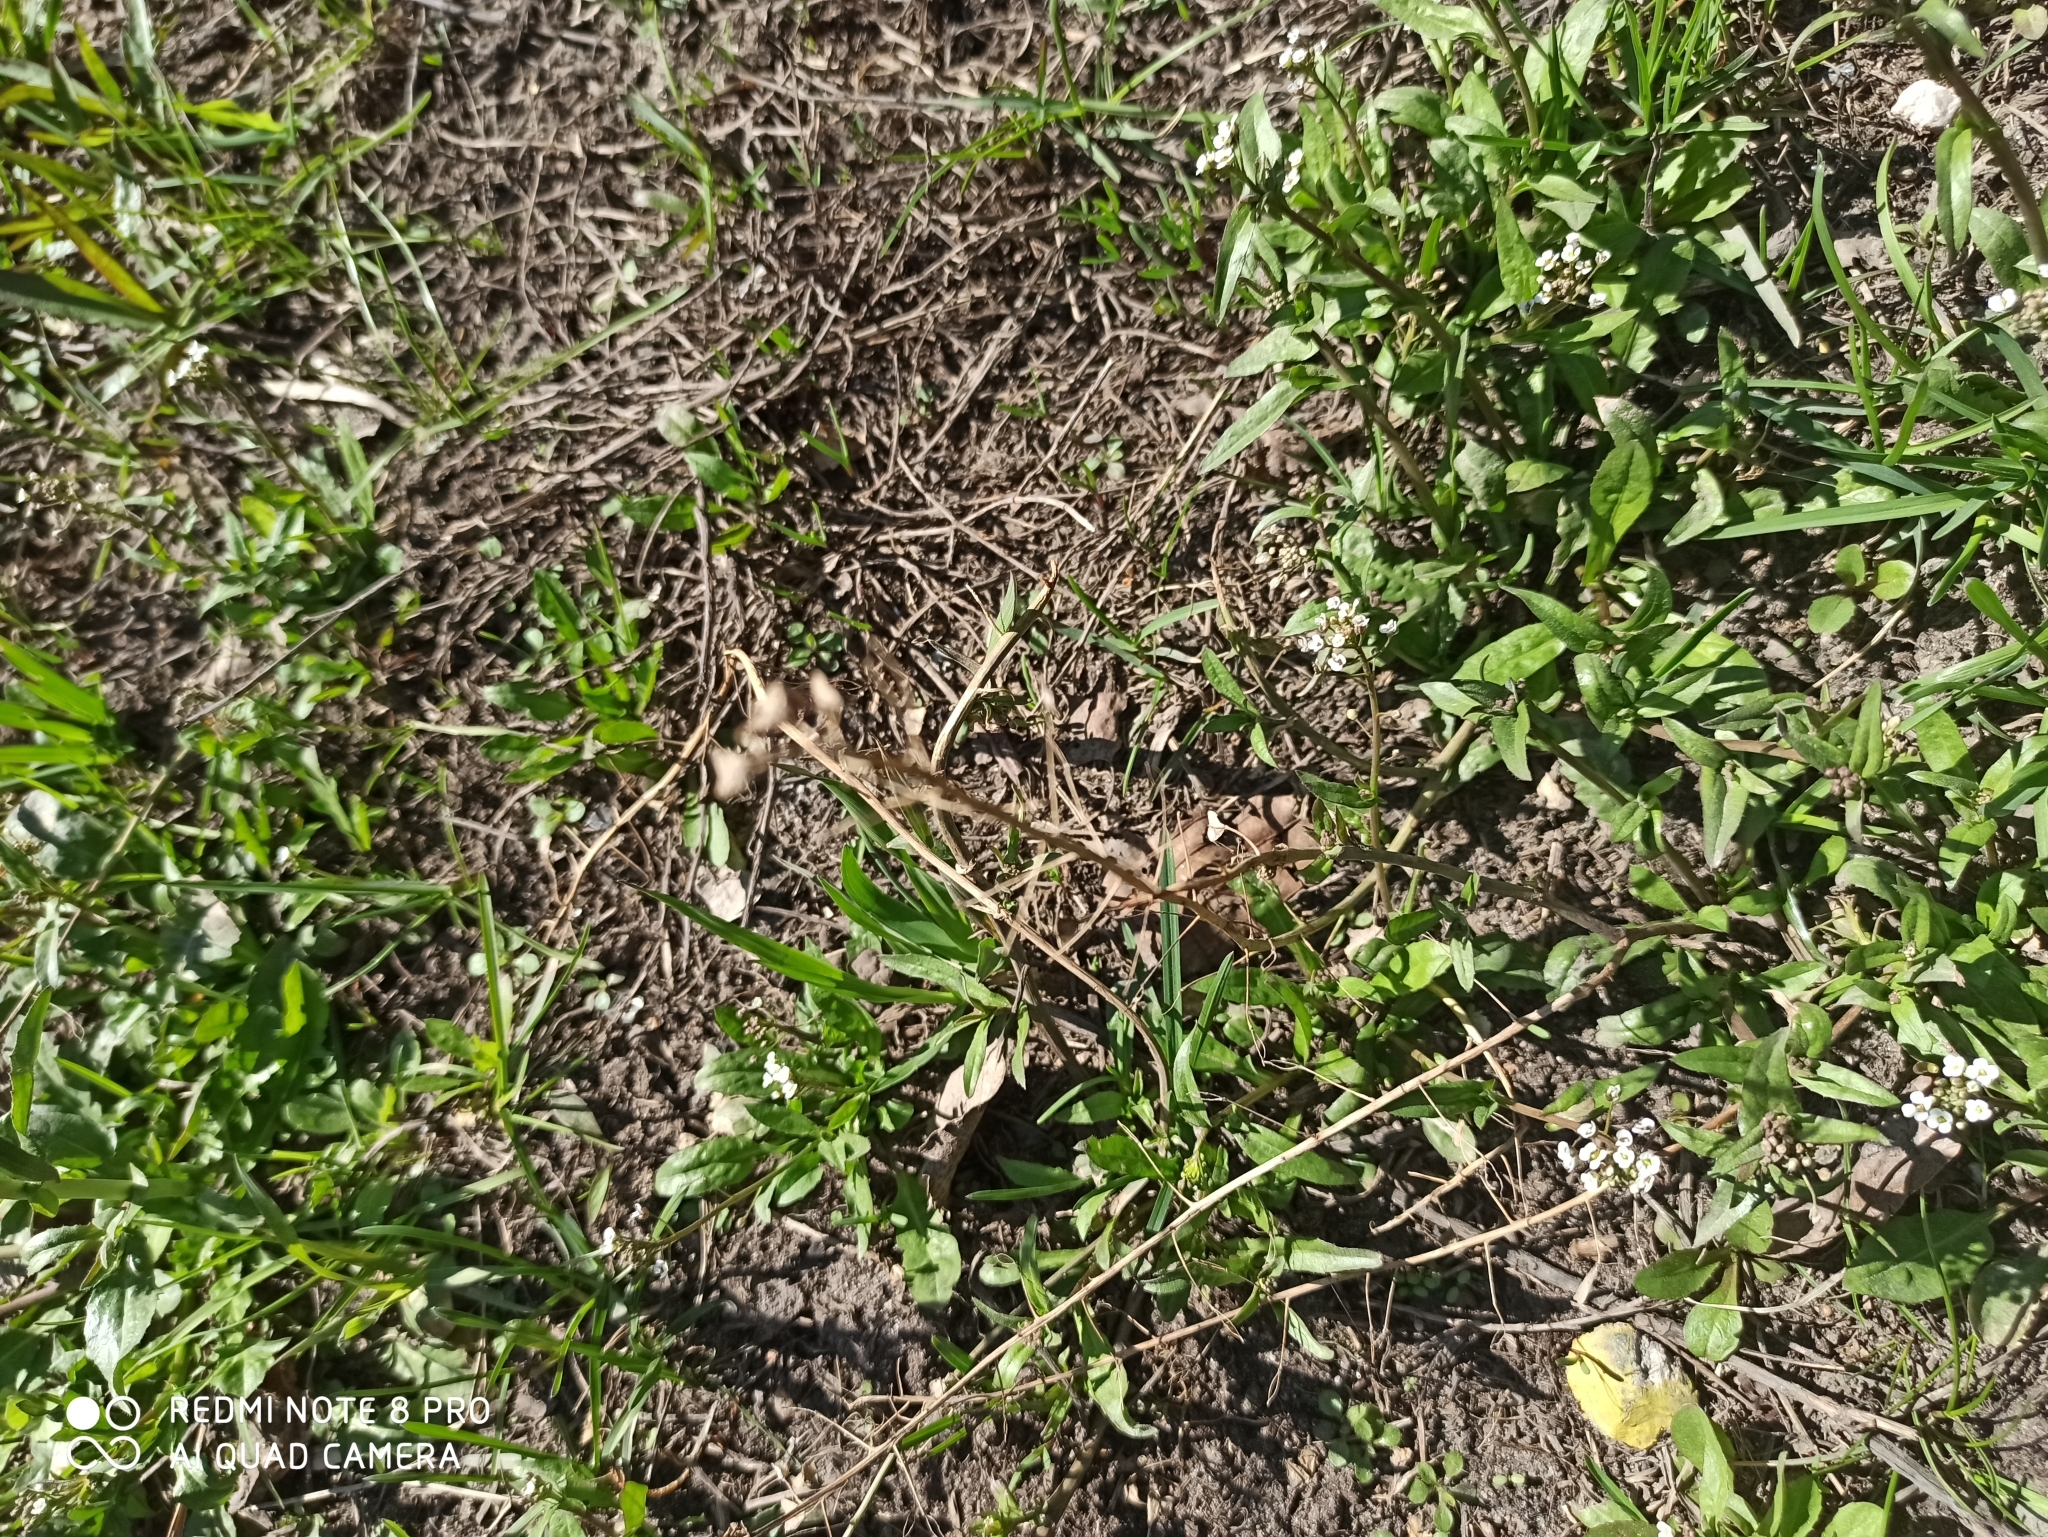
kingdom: Plantae
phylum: Tracheophyta
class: Magnoliopsida
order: Brassicales
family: Brassicaceae
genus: Capsella
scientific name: Capsella bursa-pastoris
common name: Shepherd's purse
